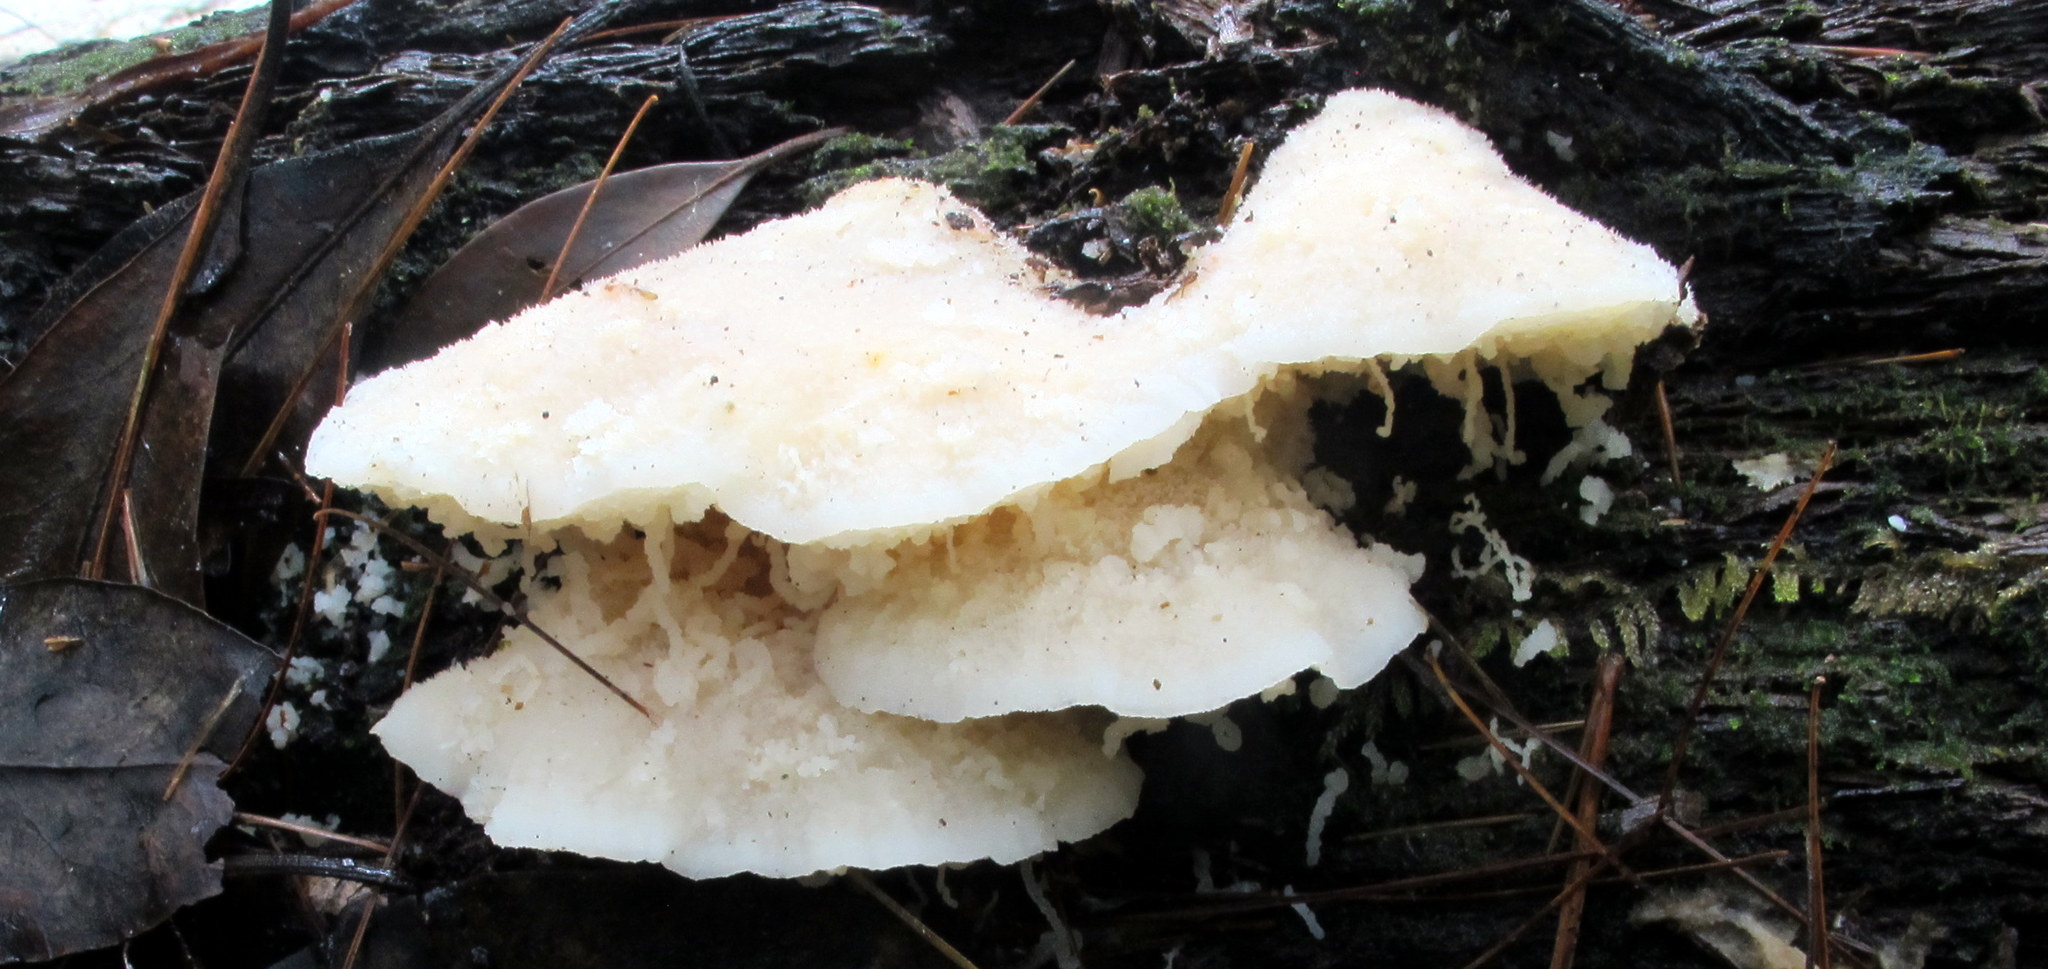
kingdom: Fungi
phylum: Basidiomycota
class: Agaricomycetes
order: Polyporales
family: Incrustoporiaceae
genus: Tyromyces
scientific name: Tyromyces chioneus
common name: White cheese polypore
